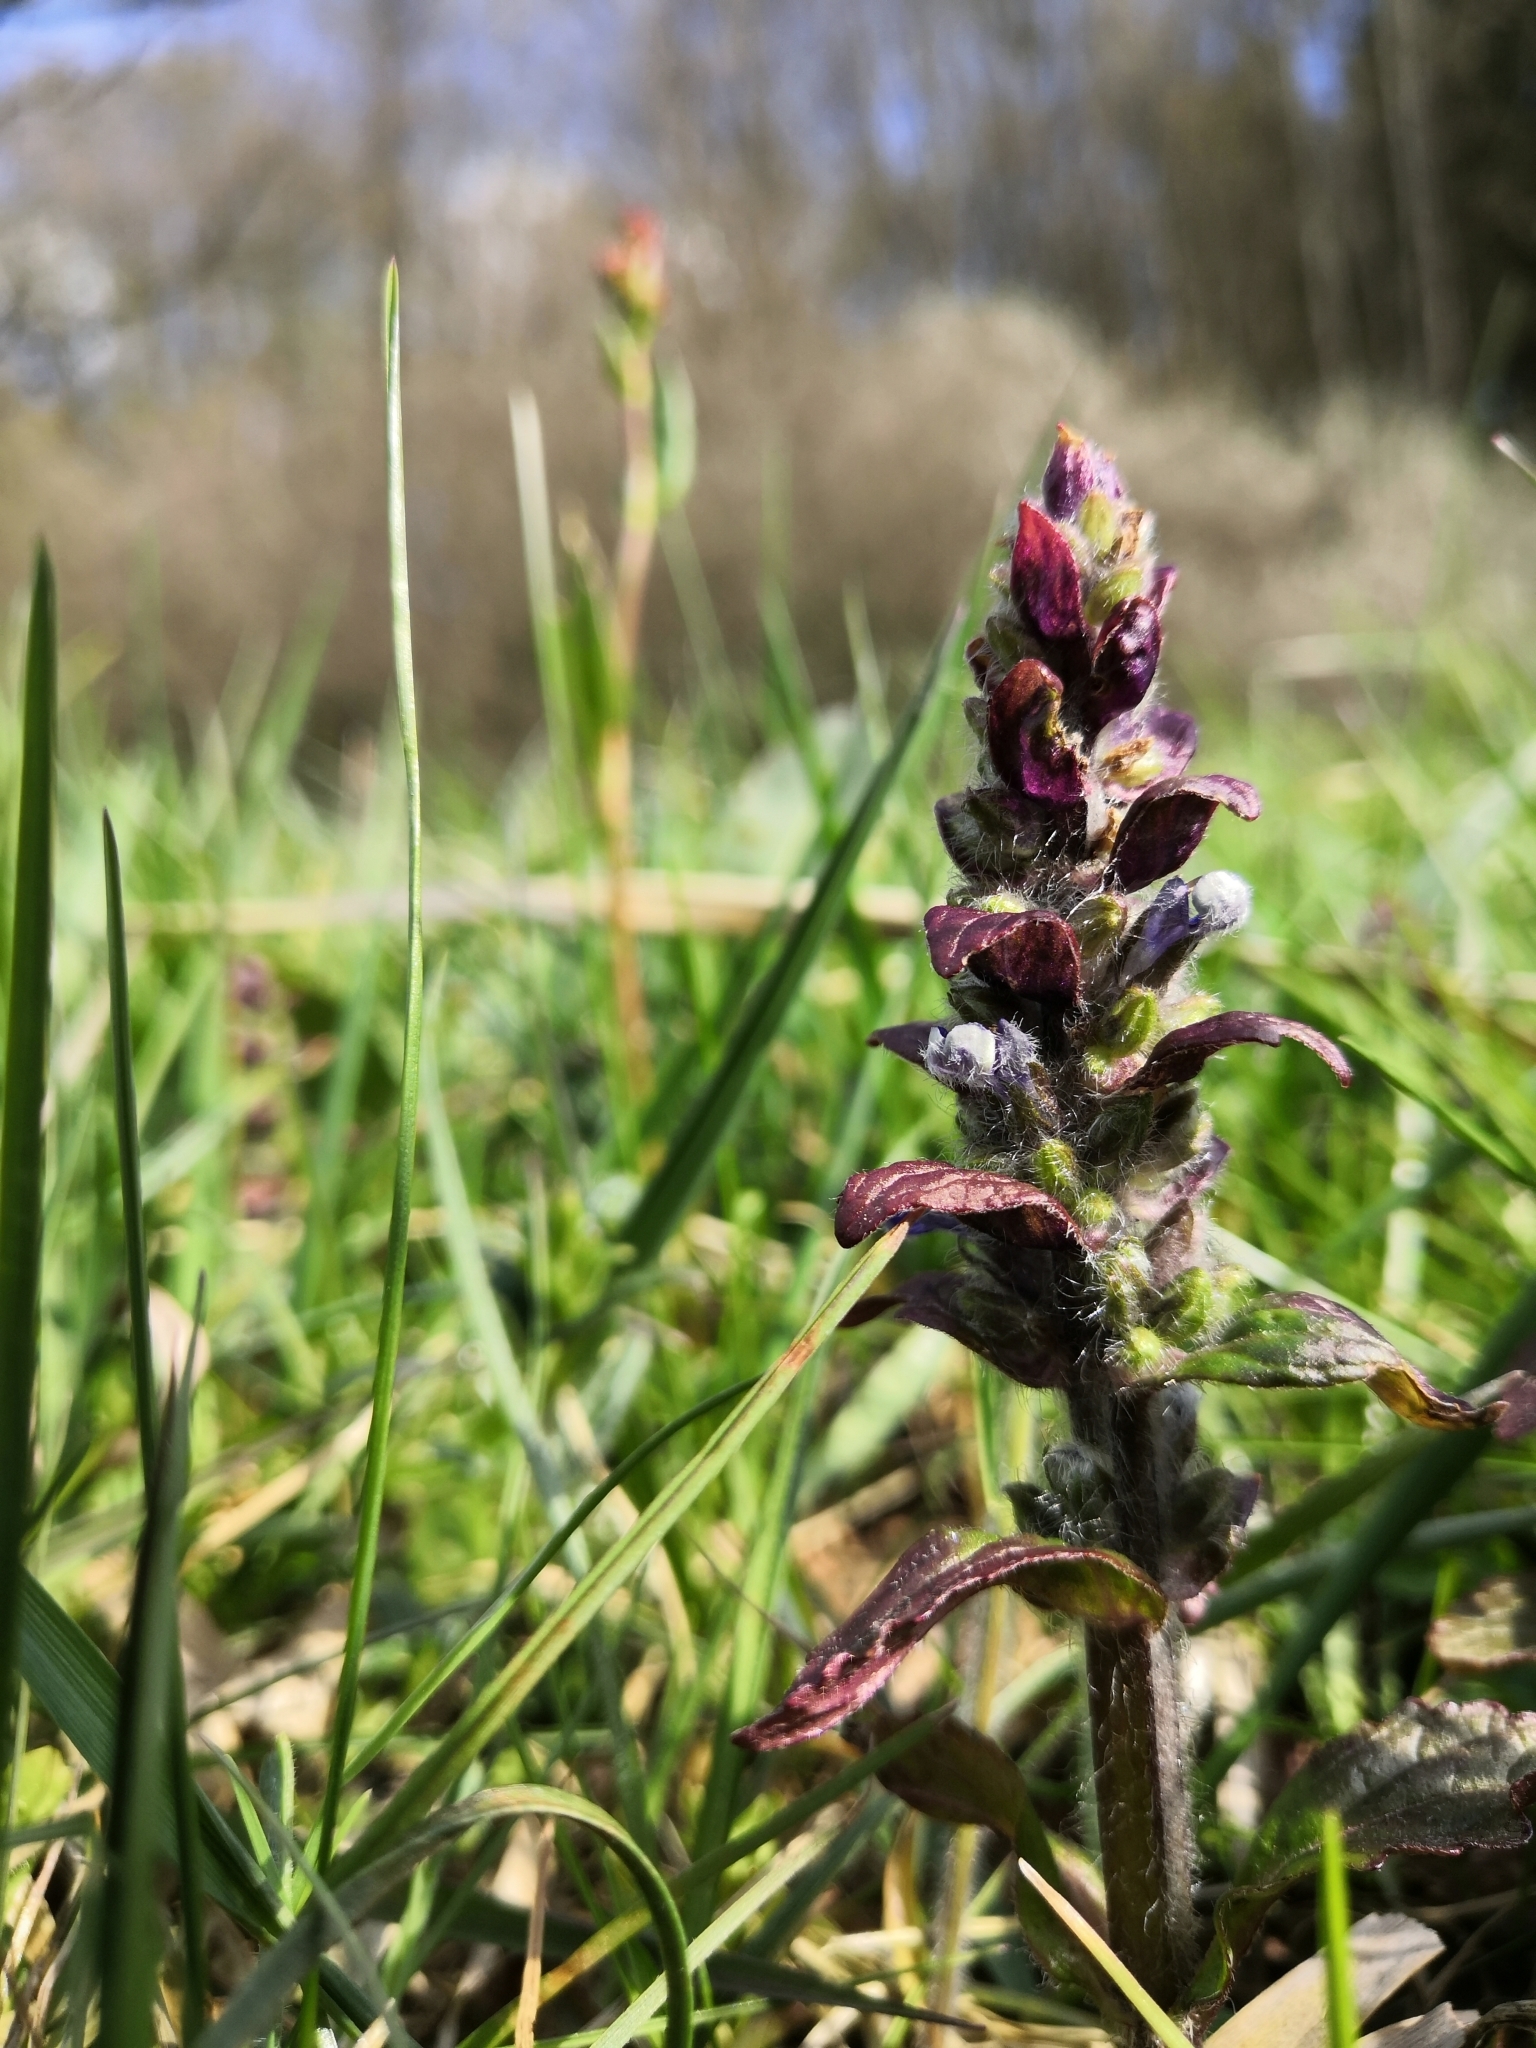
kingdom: Plantae
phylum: Tracheophyta
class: Magnoliopsida
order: Lamiales
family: Lamiaceae
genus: Ajuga
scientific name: Ajuga reptans
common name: Bugle
